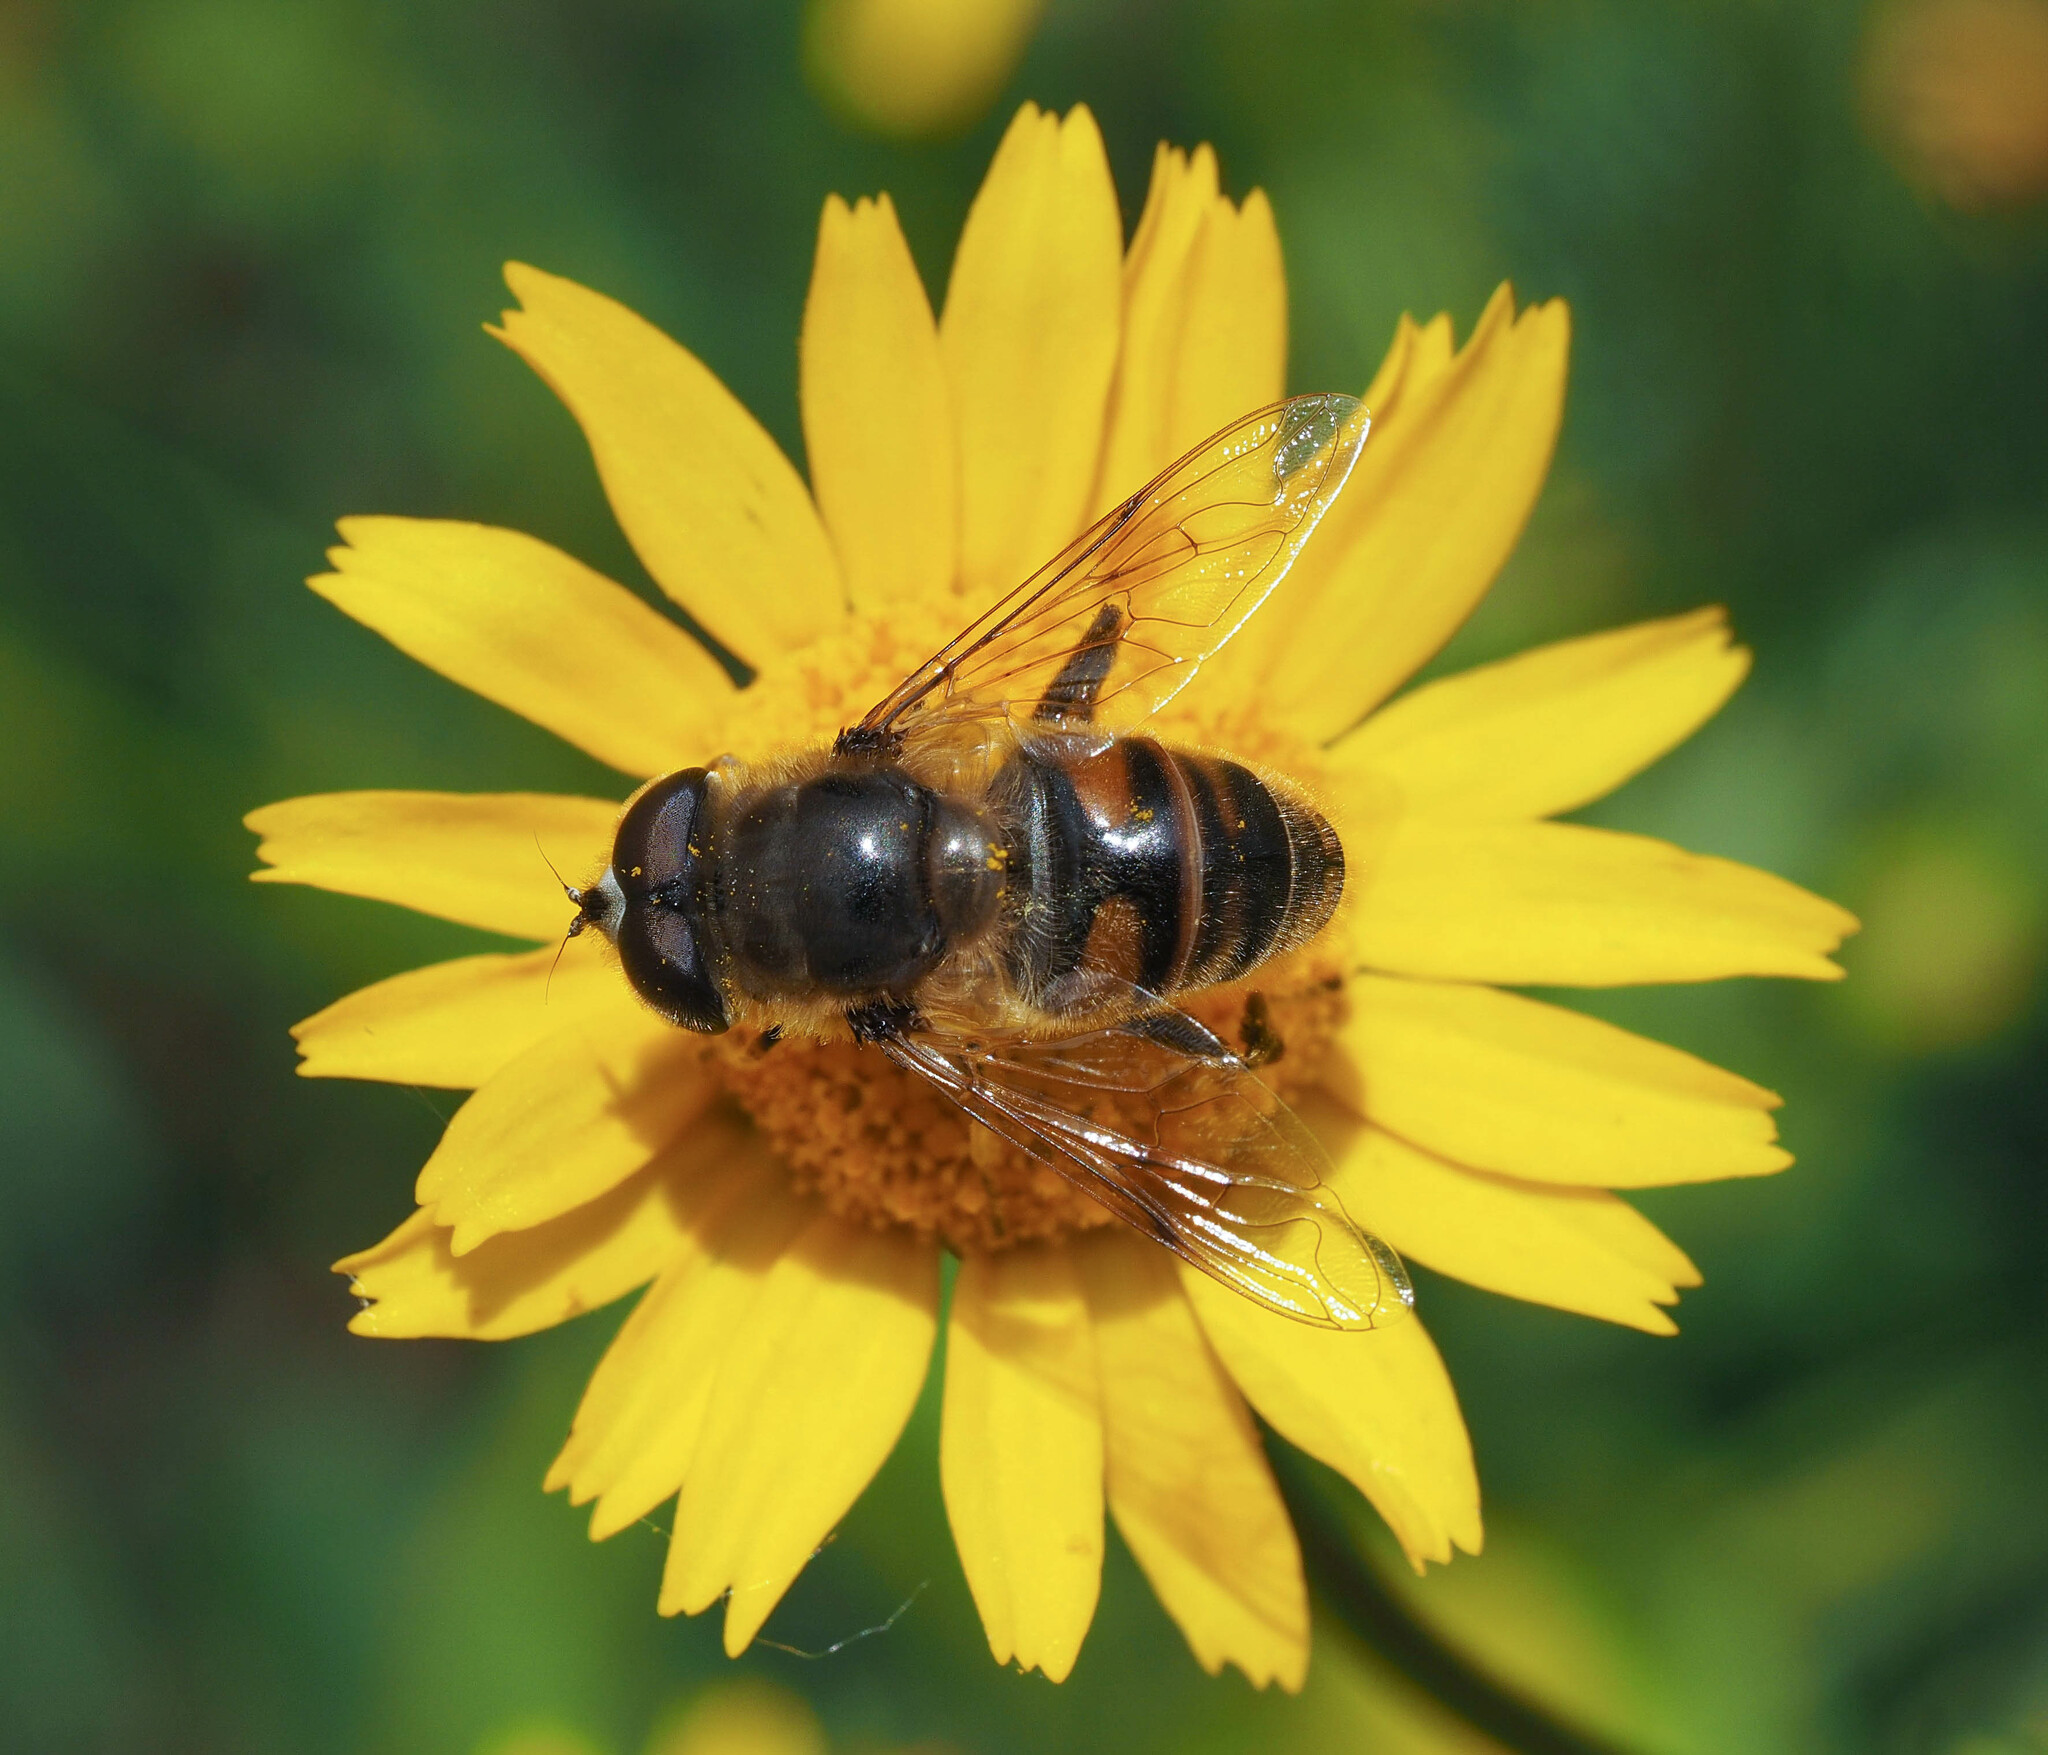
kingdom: Animalia
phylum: Arthropoda
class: Insecta
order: Diptera
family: Syrphidae
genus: Eristalis
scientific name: Eristalis tenax
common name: Drone fly
